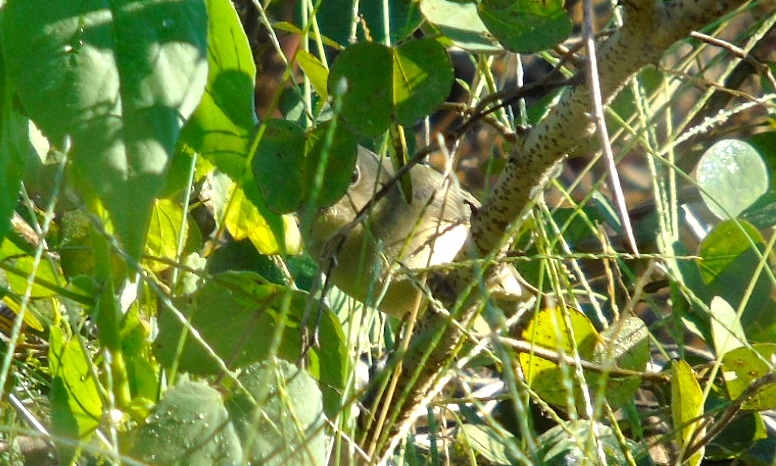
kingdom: Animalia
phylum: Chordata
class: Aves
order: Passeriformes
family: Parulidae
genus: Leiothlypis
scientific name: Leiothlypis ruficapilla
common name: Nashville warbler
